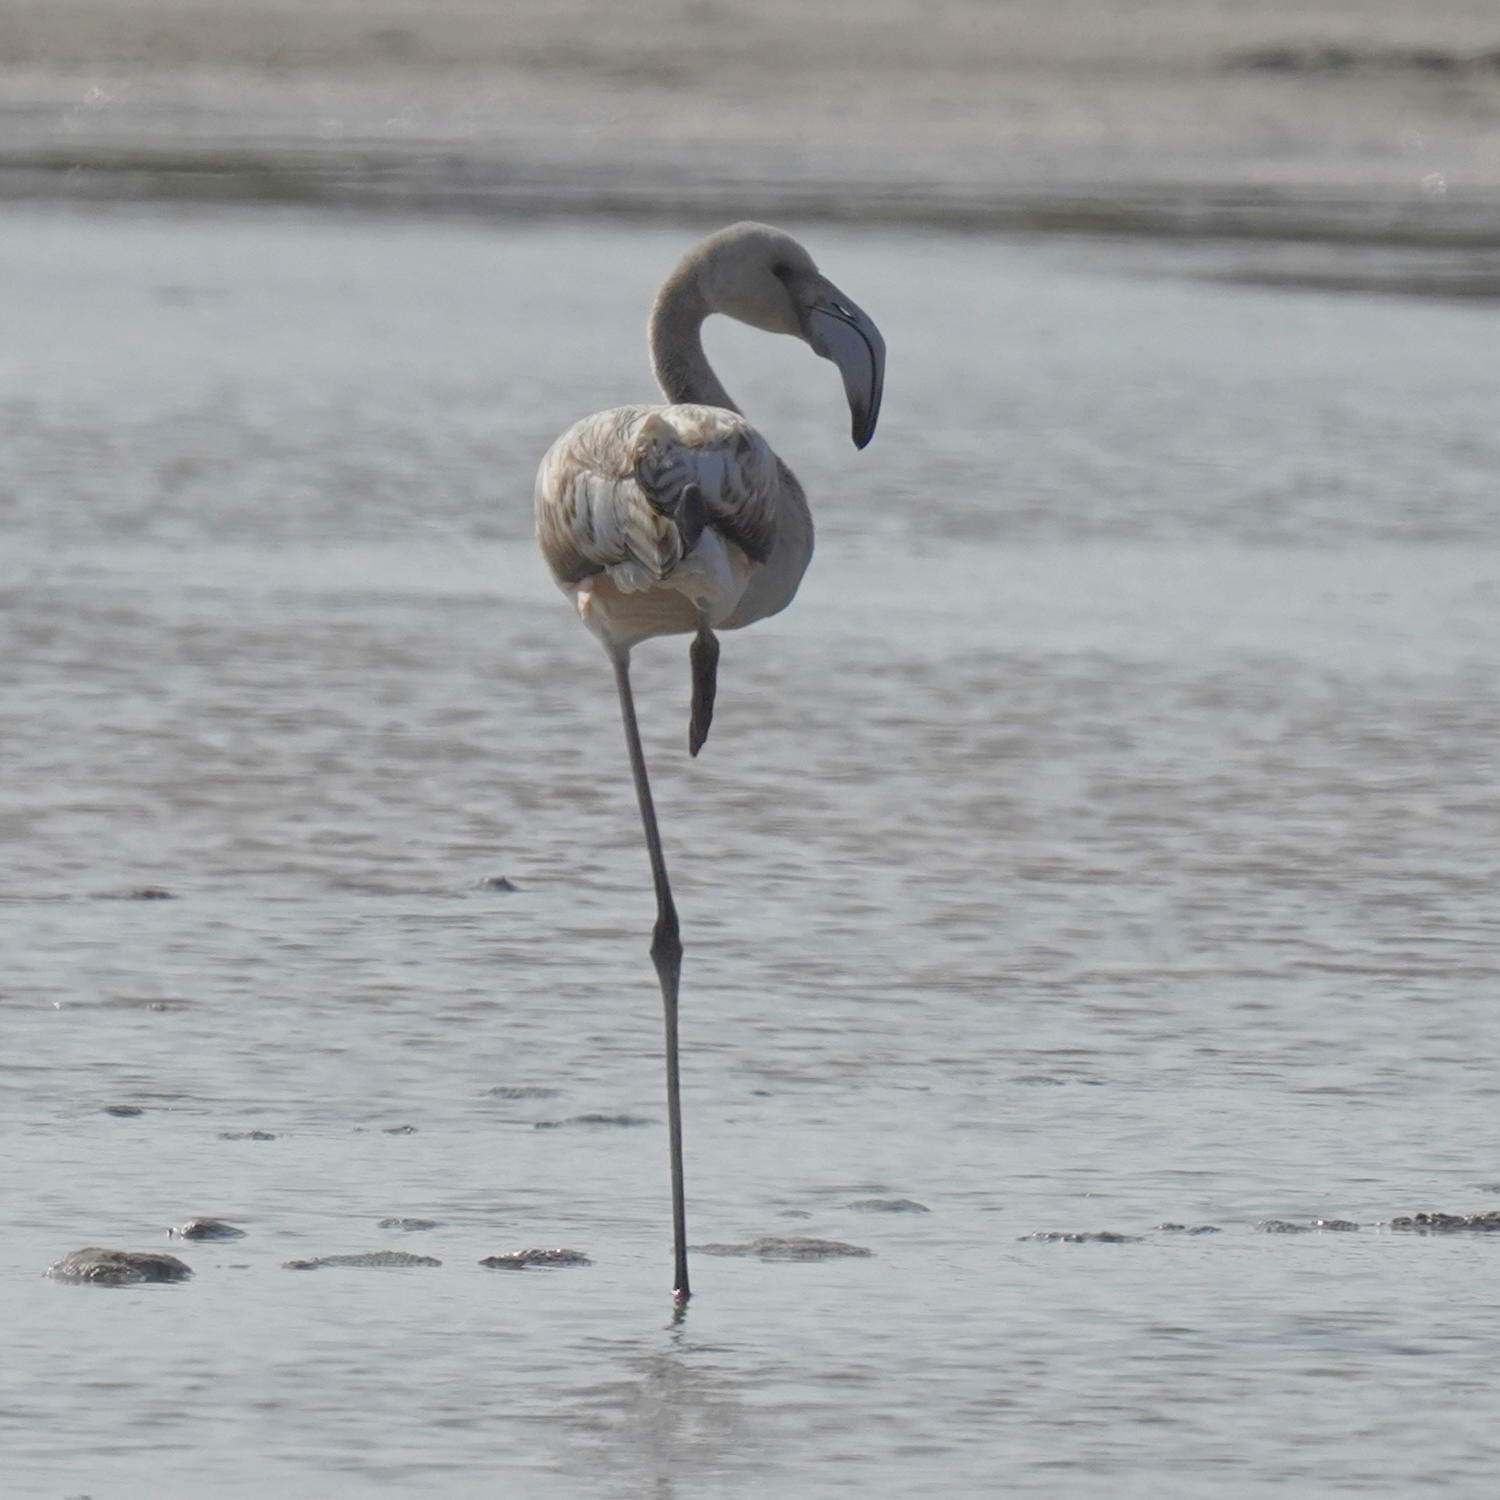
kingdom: Animalia
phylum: Chordata
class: Aves
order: Phoenicopteriformes
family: Phoenicopteridae
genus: Phoenicopterus
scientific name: Phoenicopterus roseus
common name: Greater flamingo
